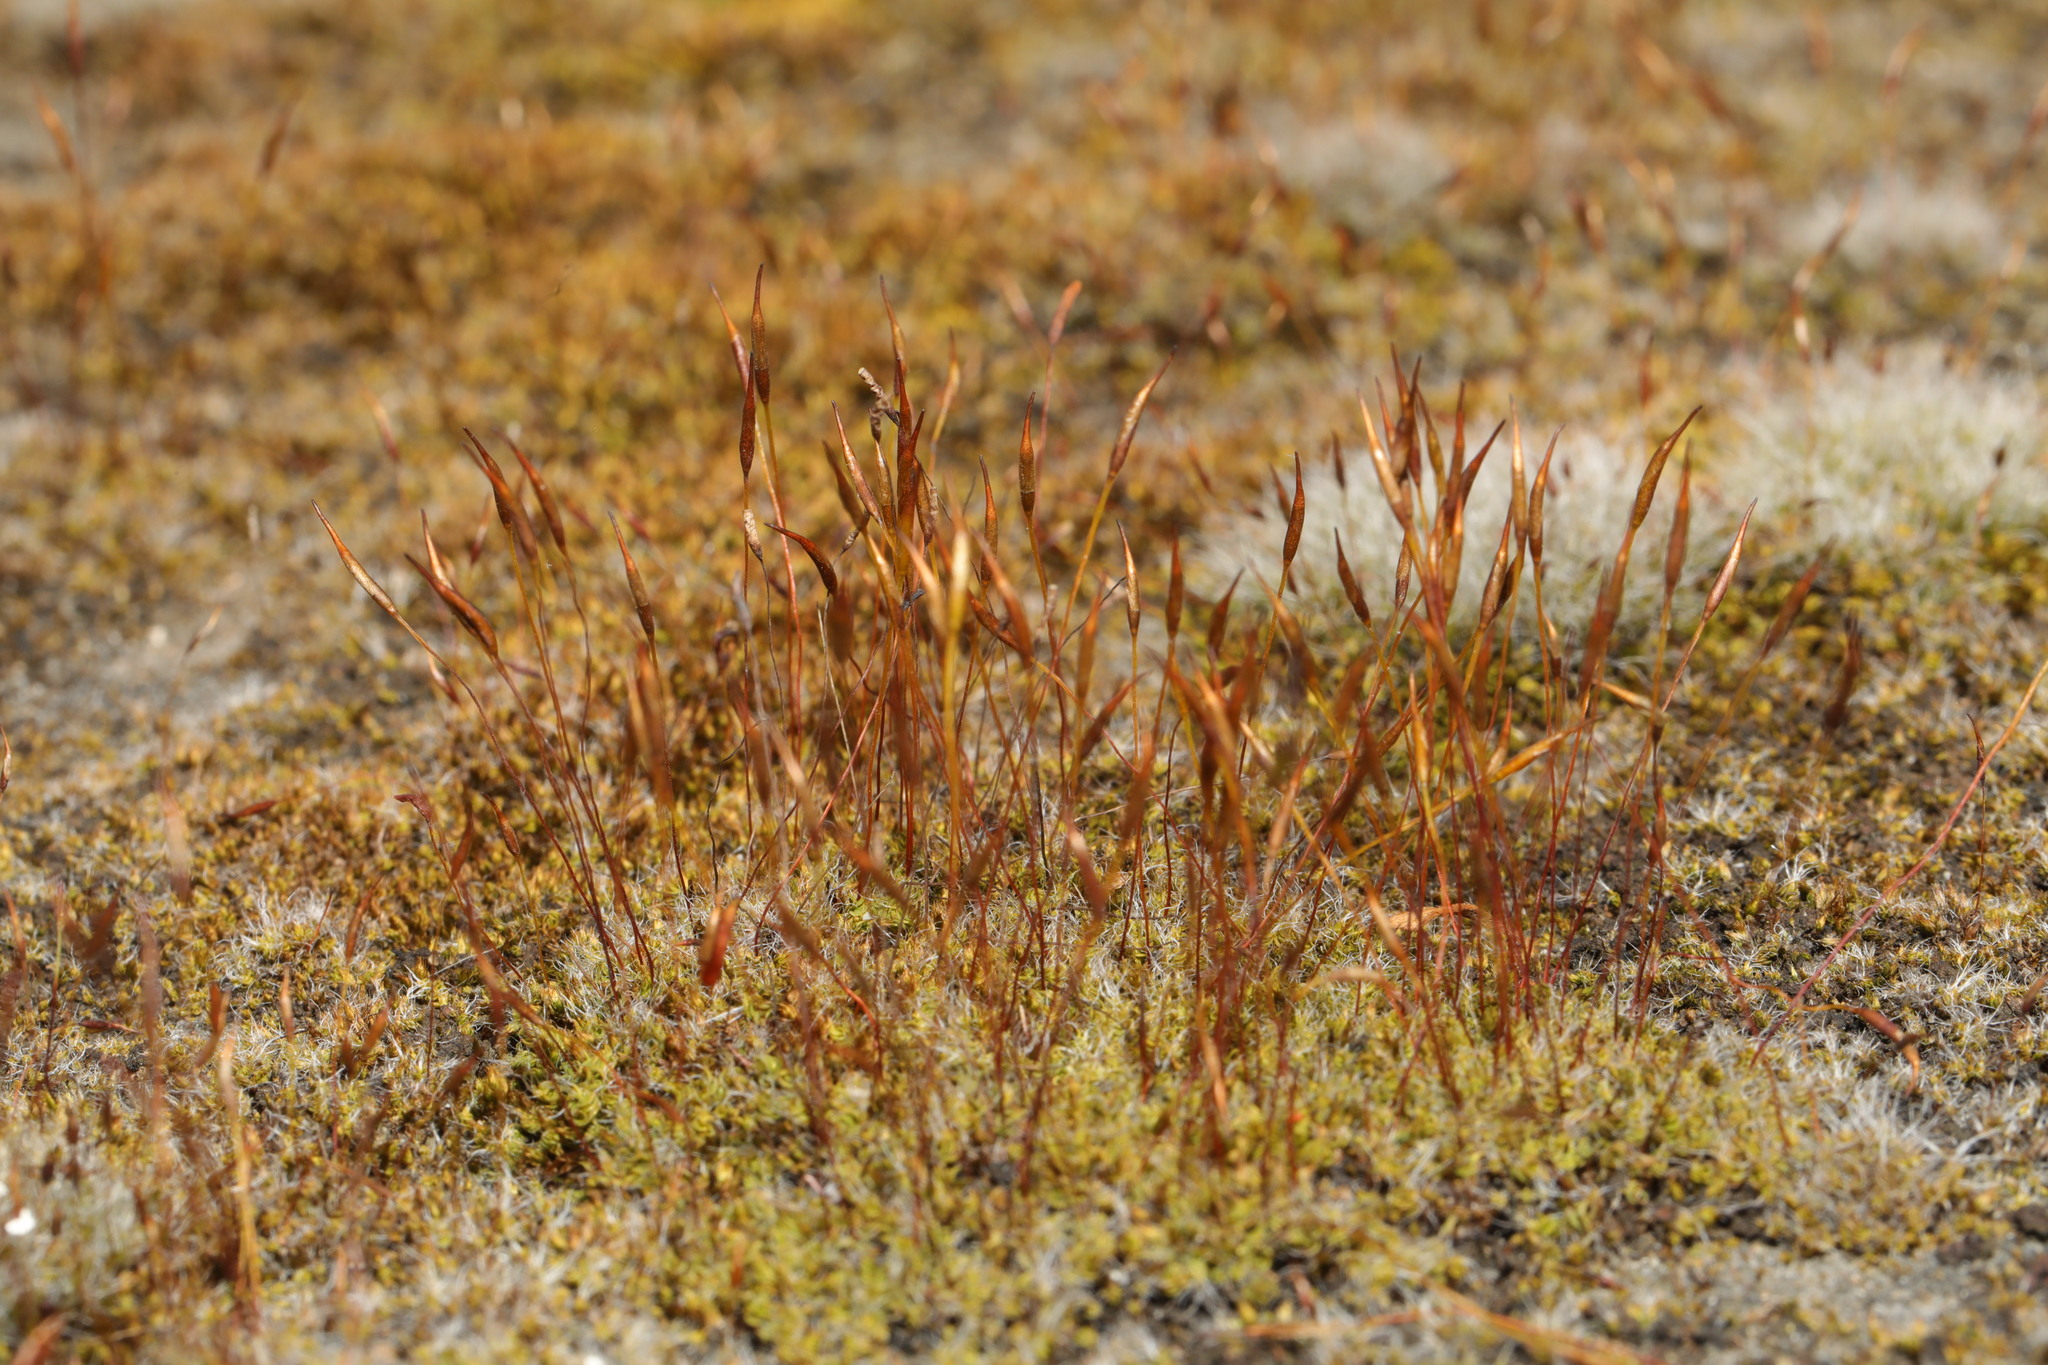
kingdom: Plantae
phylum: Bryophyta
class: Bryopsida
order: Pottiales
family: Pottiaceae
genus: Tortula
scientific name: Tortula muralis
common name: Wall screw-moss
